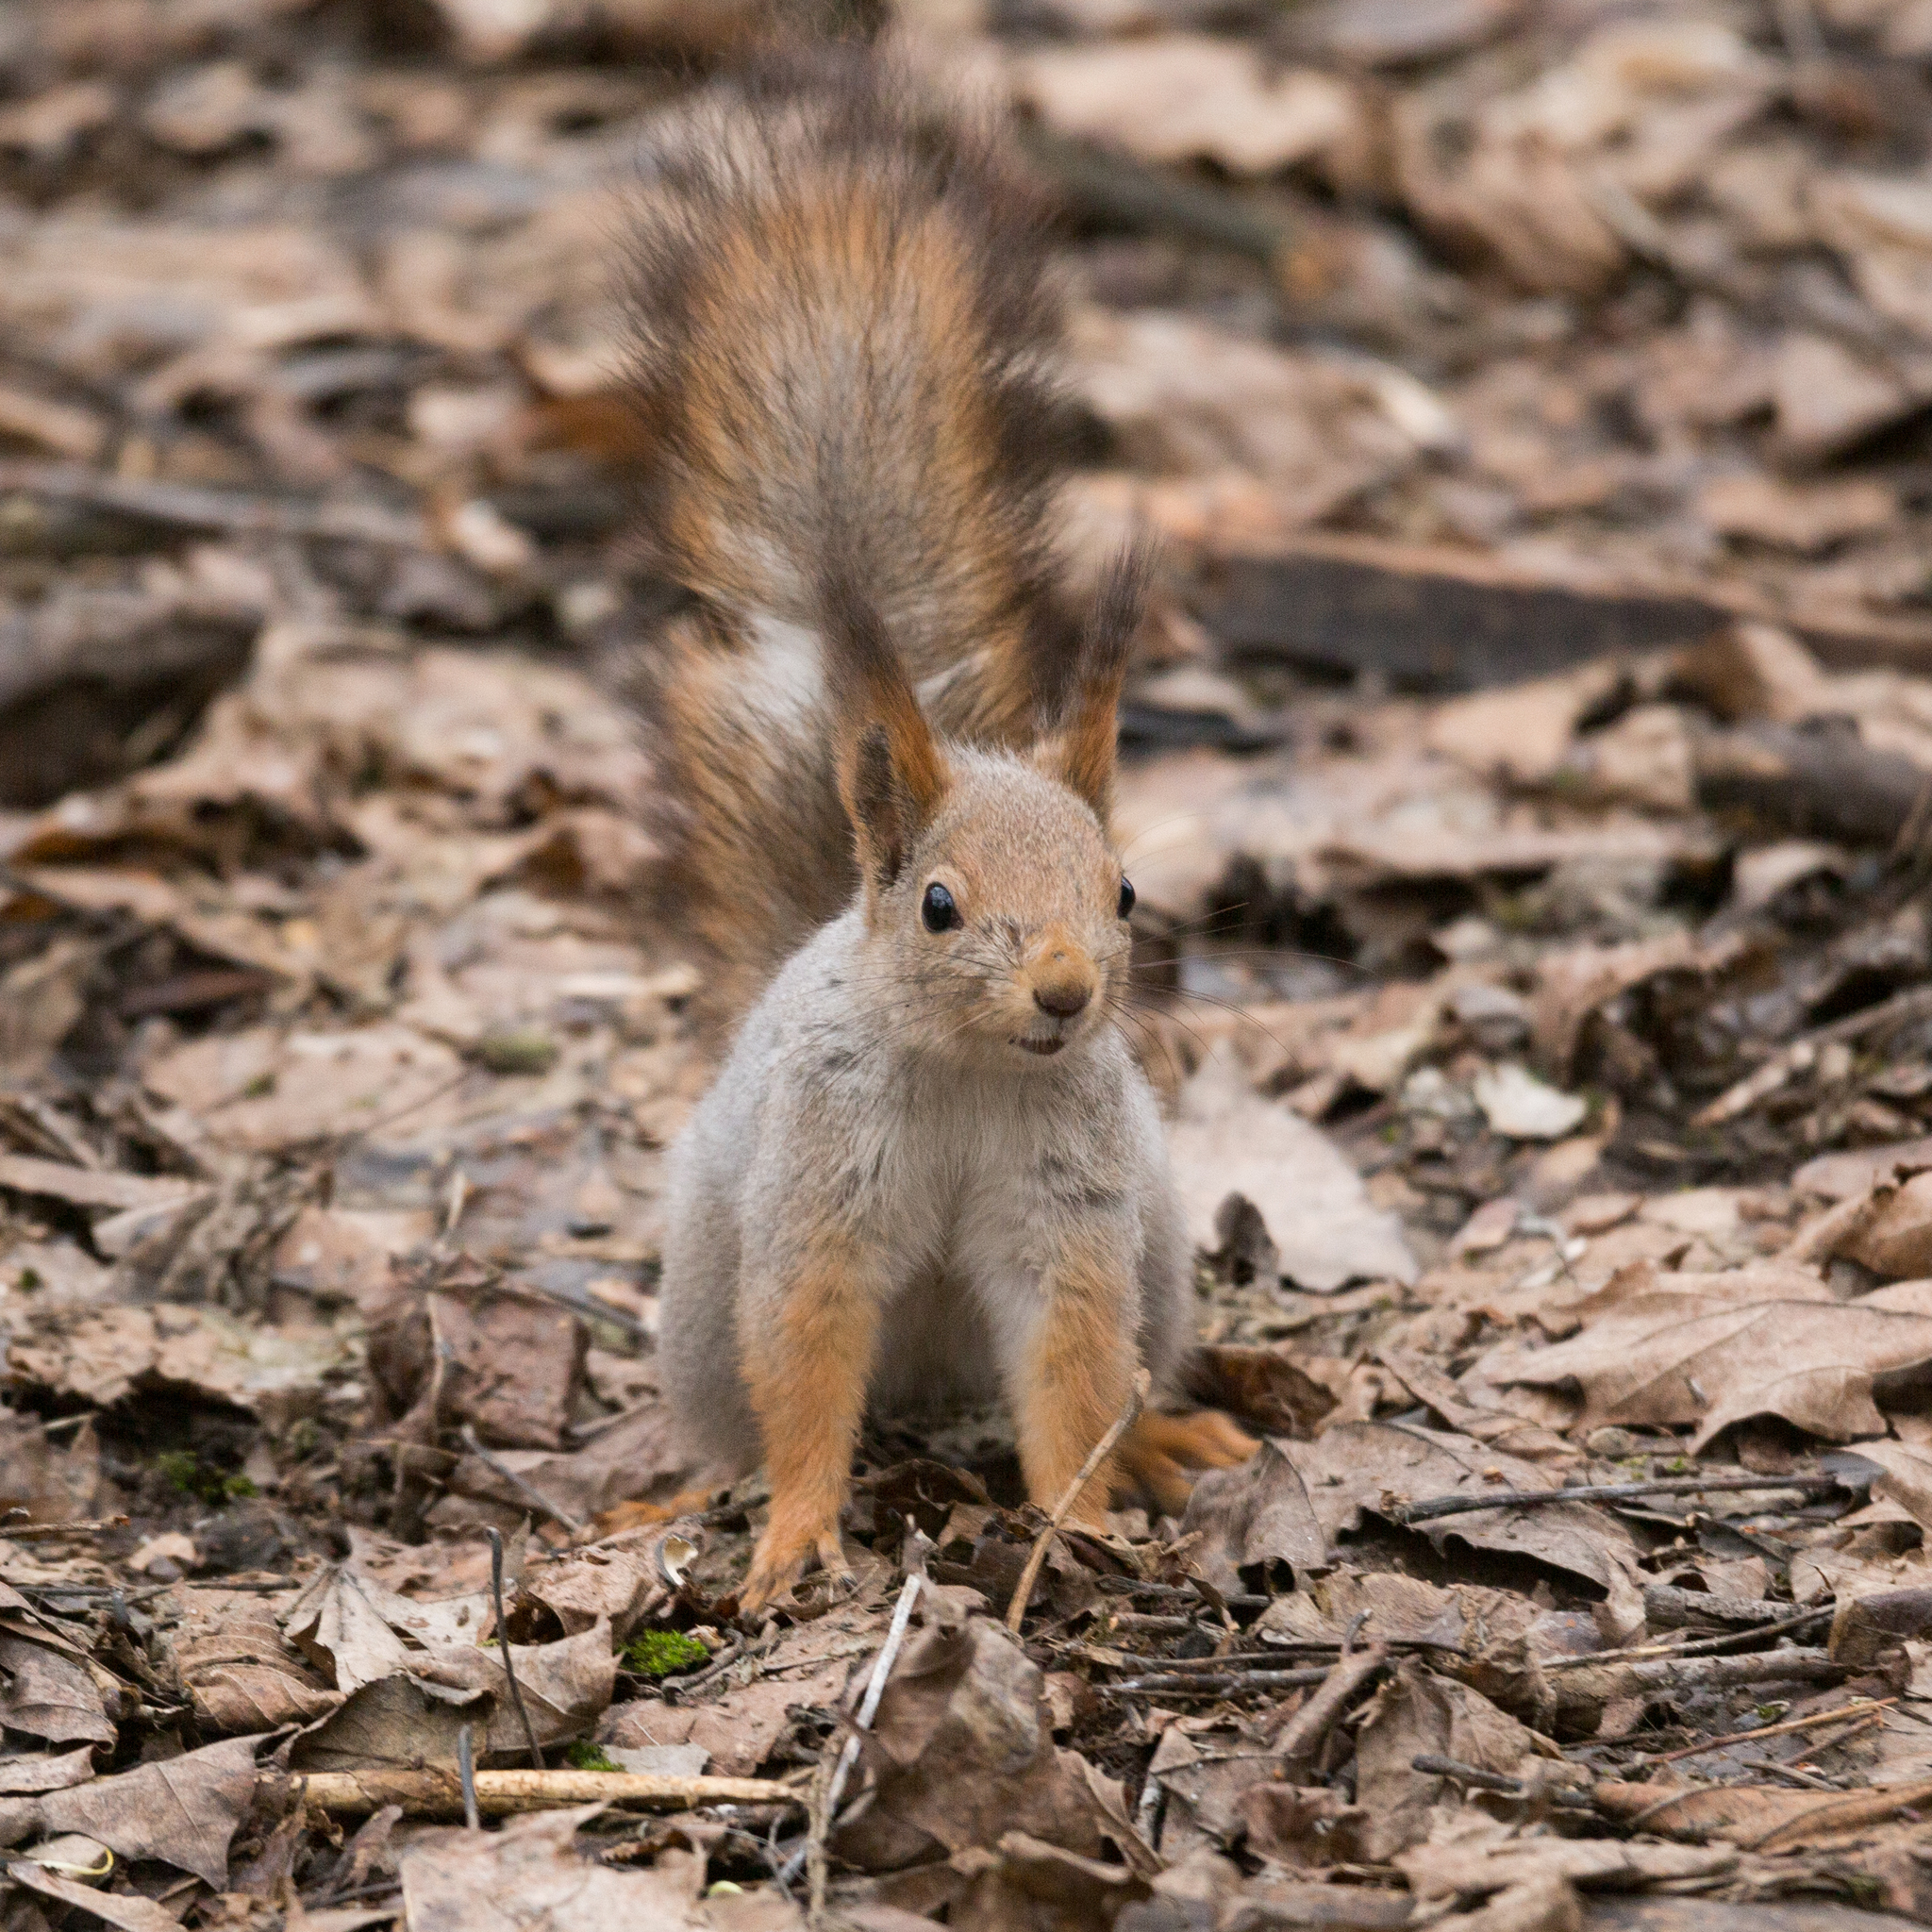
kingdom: Animalia
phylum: Chordata
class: Mammalia
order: Rodentia
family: Sciuridae
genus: Sciurus
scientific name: Sciurus vulgaris
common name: Eurasian red squirrel
